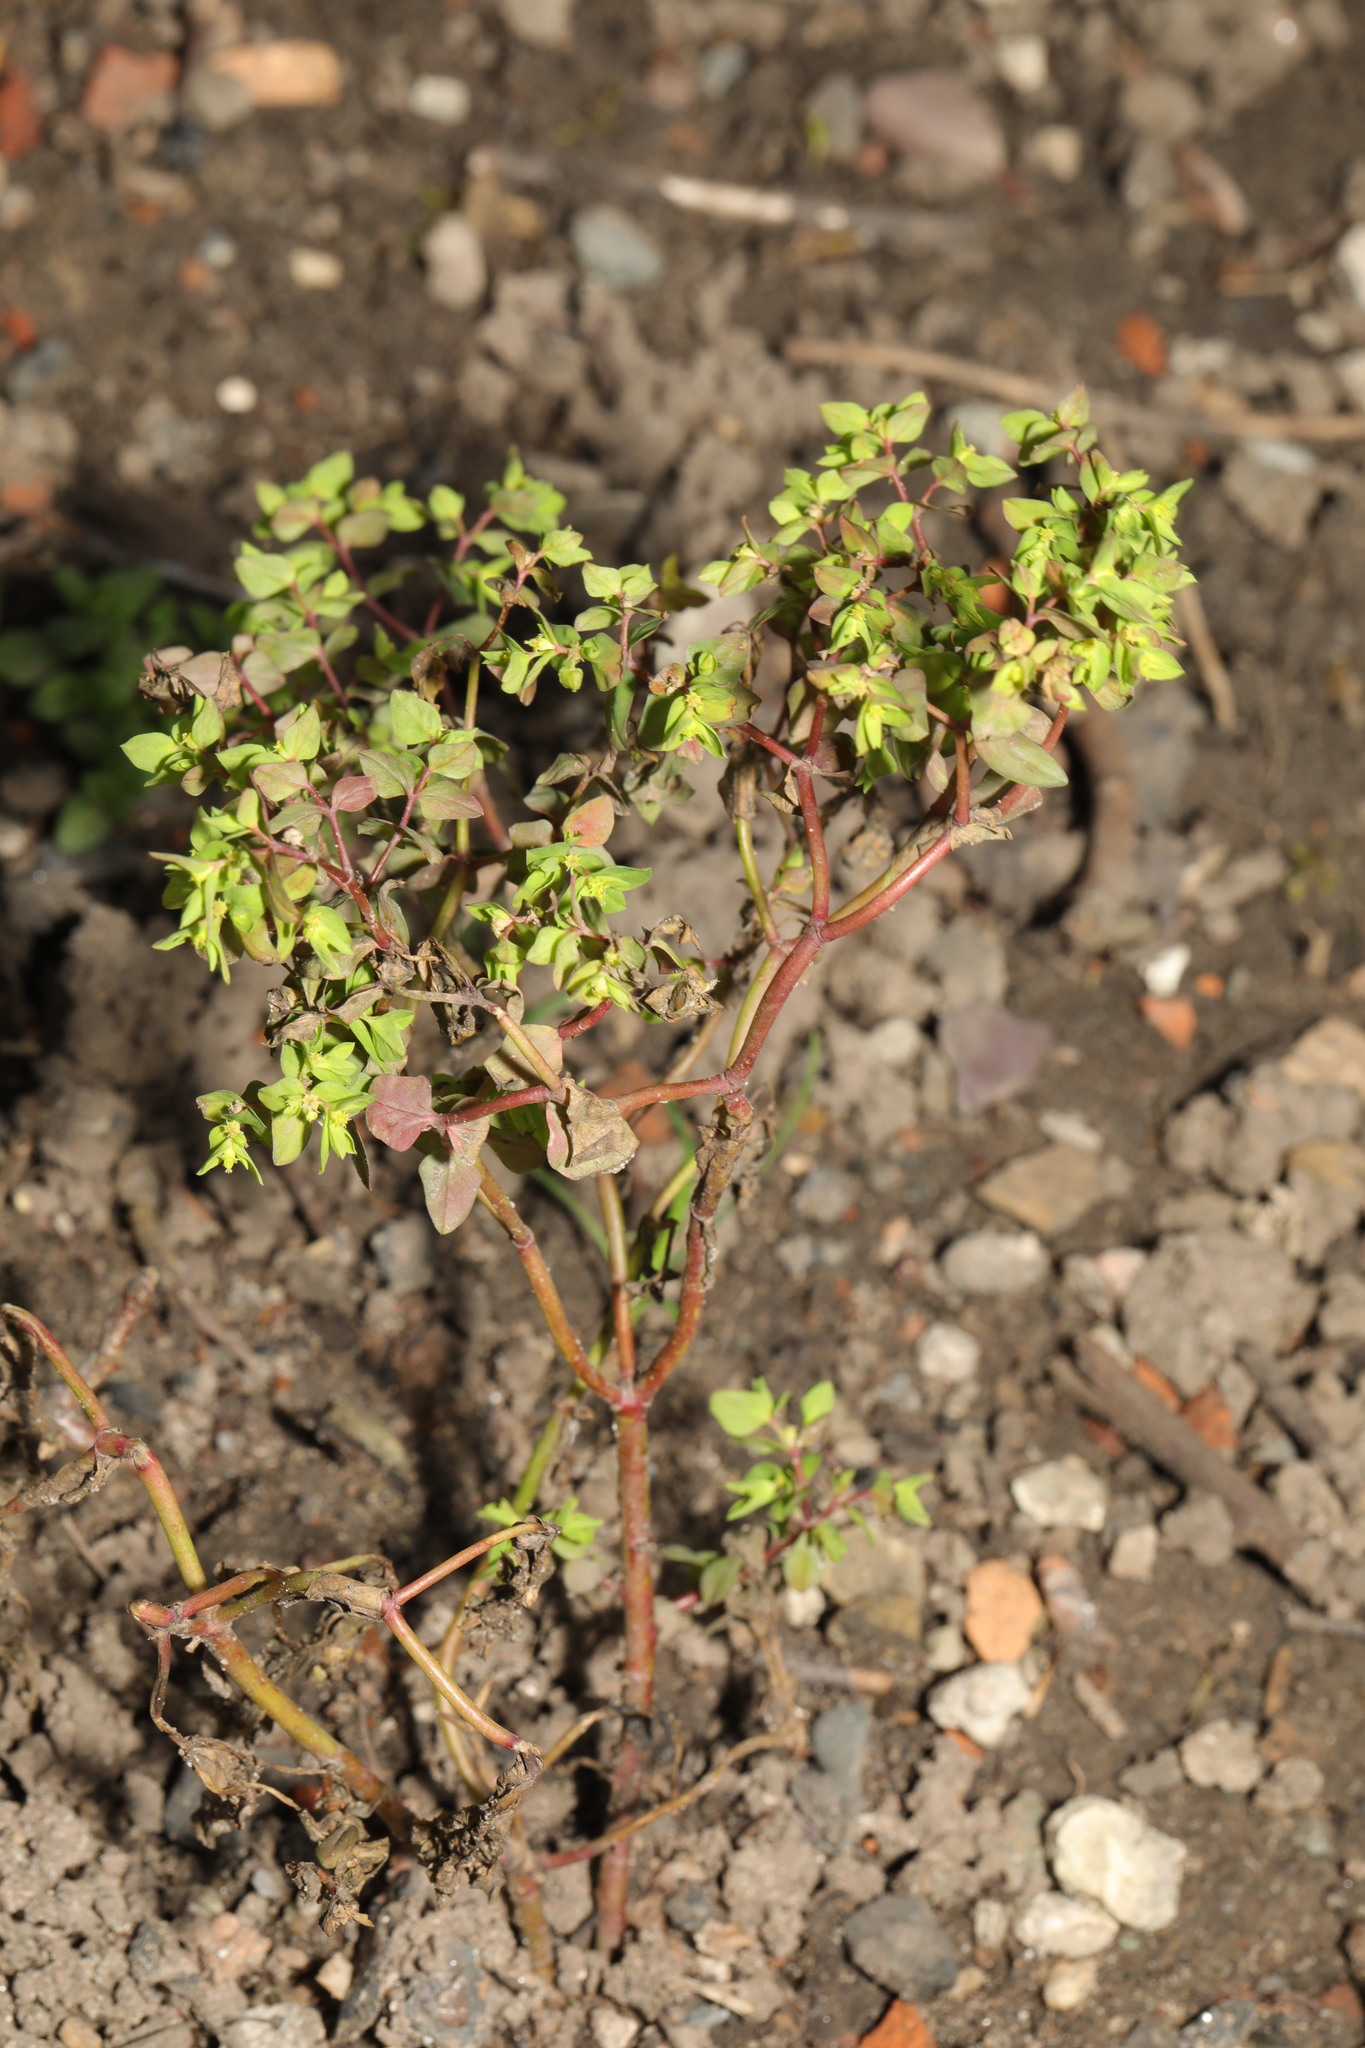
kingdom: Plantae
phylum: Tracheophyta
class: Magnoliopsida
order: Malpighiales
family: Euphorbiaceae
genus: Euphorbia
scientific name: Euphorbia peplus
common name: Petty spurge
